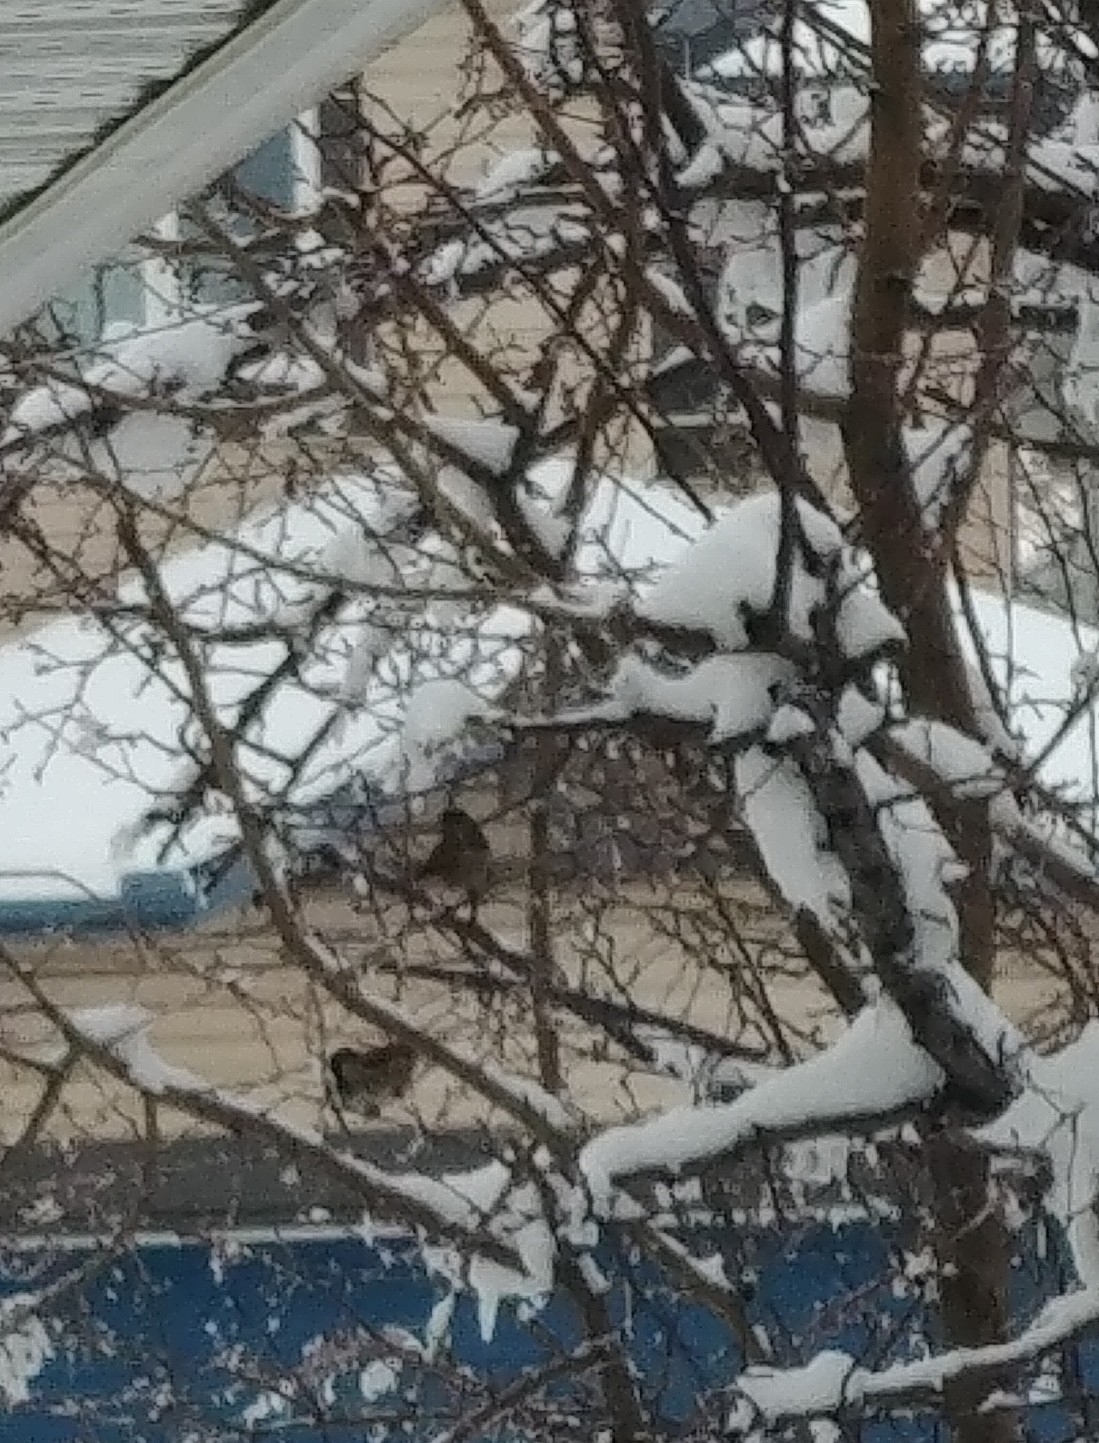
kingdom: Animalia
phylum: Chordata
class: Aves
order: Passeriformes
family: Passeridae
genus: Passer
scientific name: Passer domesticus
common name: House sparrow
